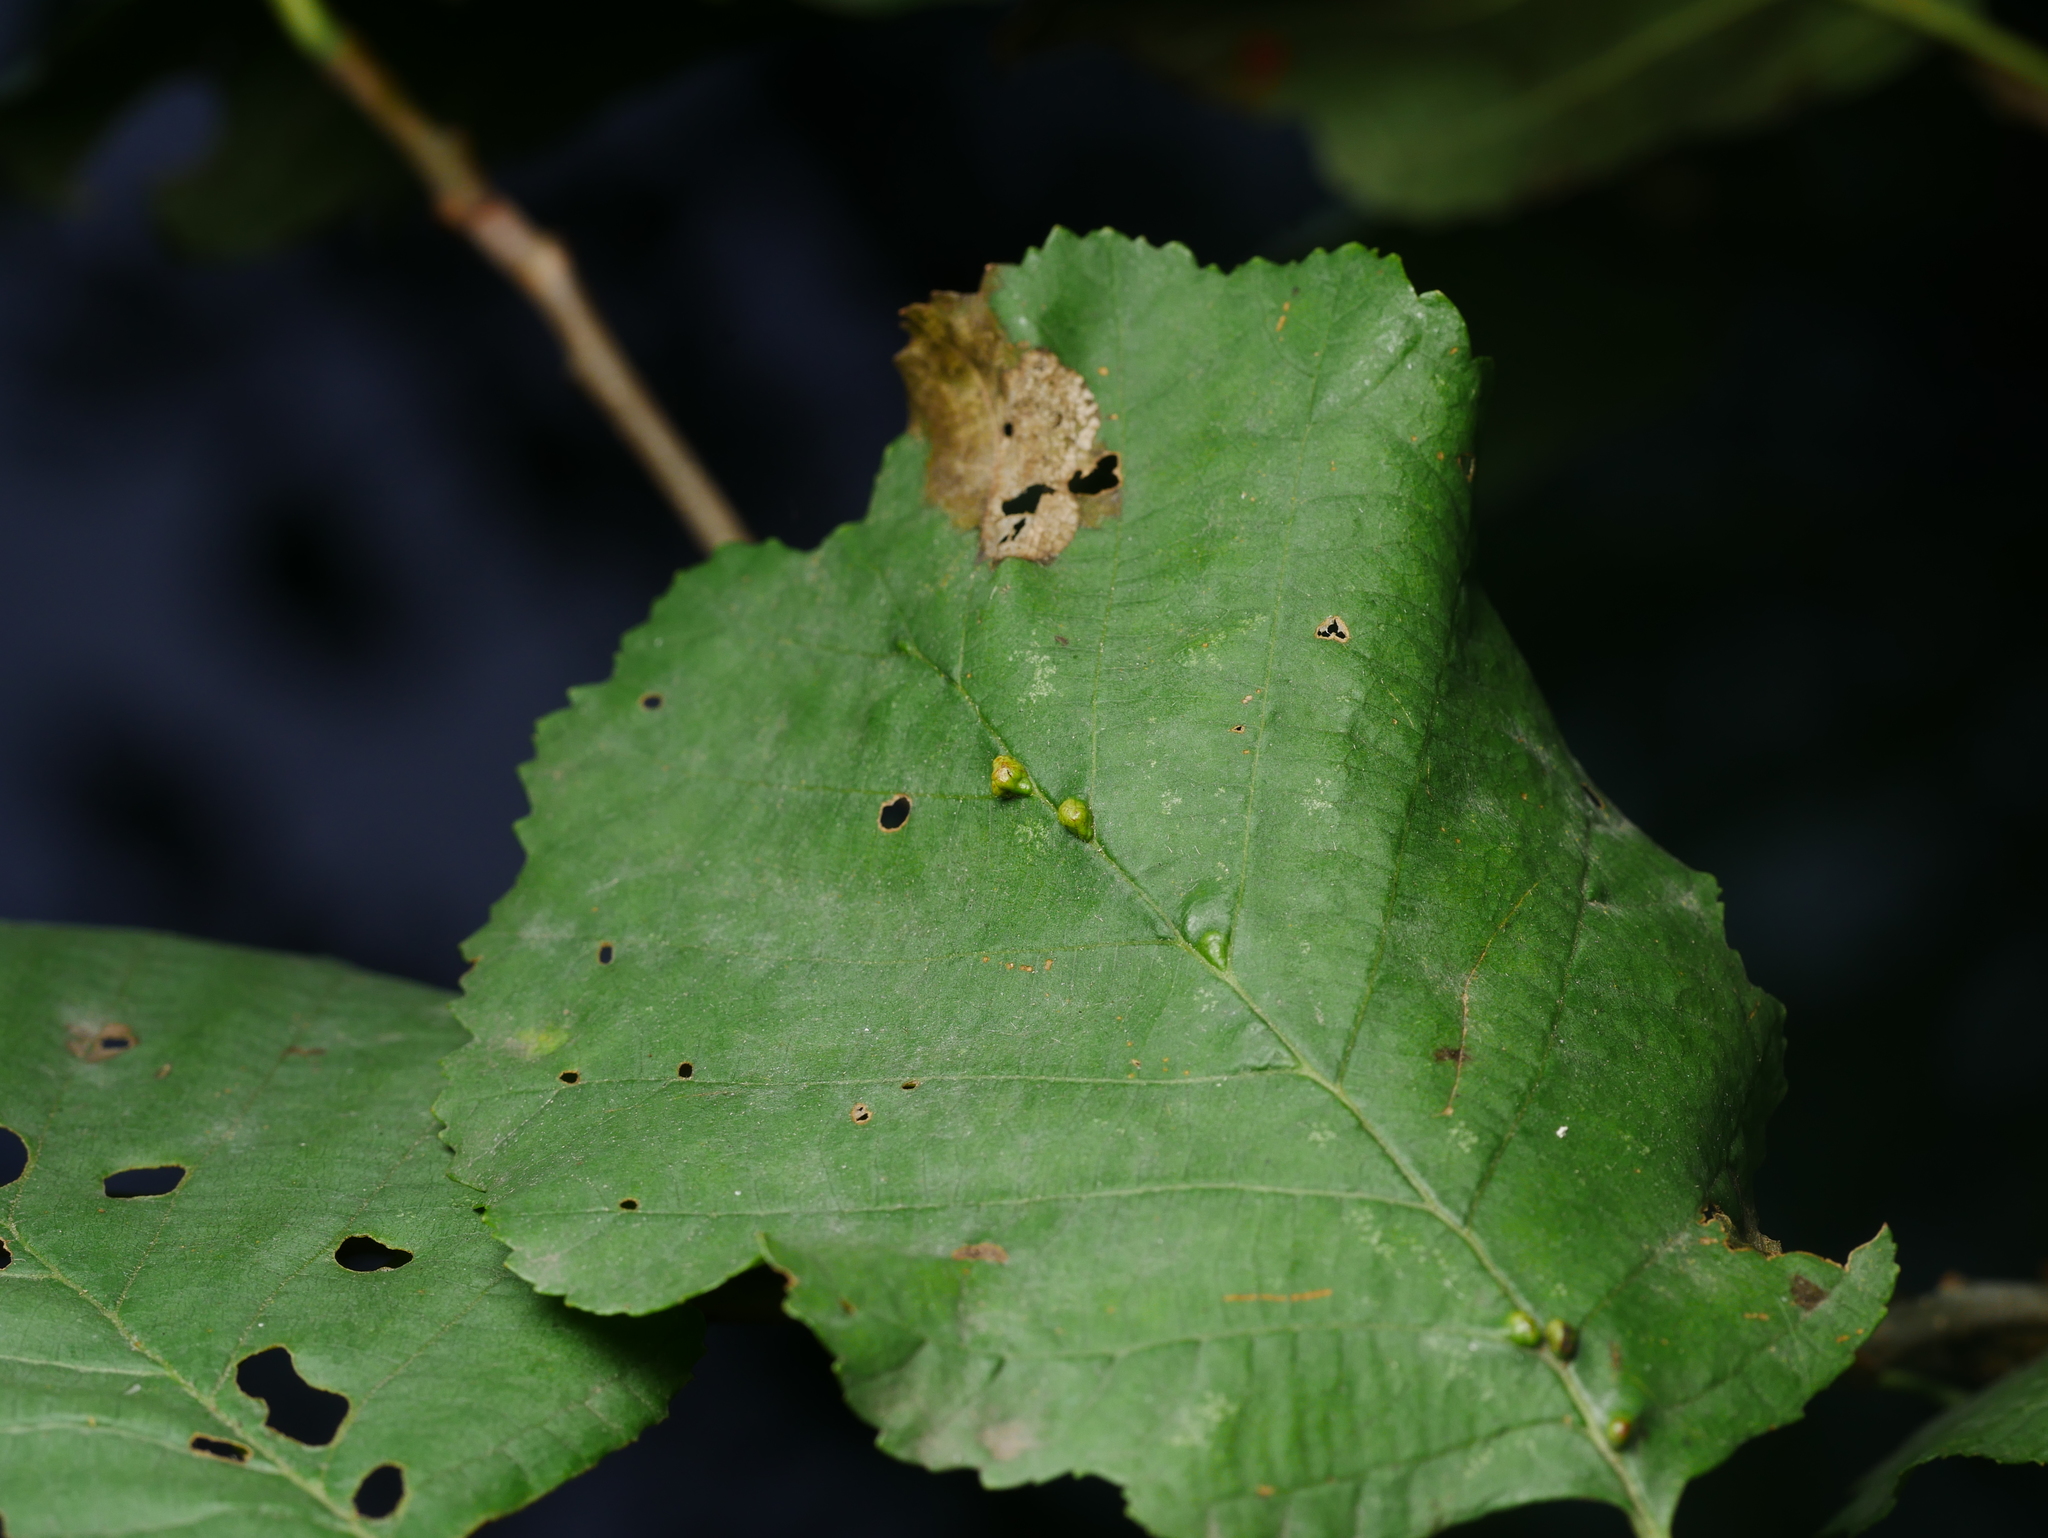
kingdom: Animalia
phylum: Arthropoda
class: Arachnida
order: Trombidiformes
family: Eriophyidae
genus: Eriophyes
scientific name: Eriophyes inangulis
